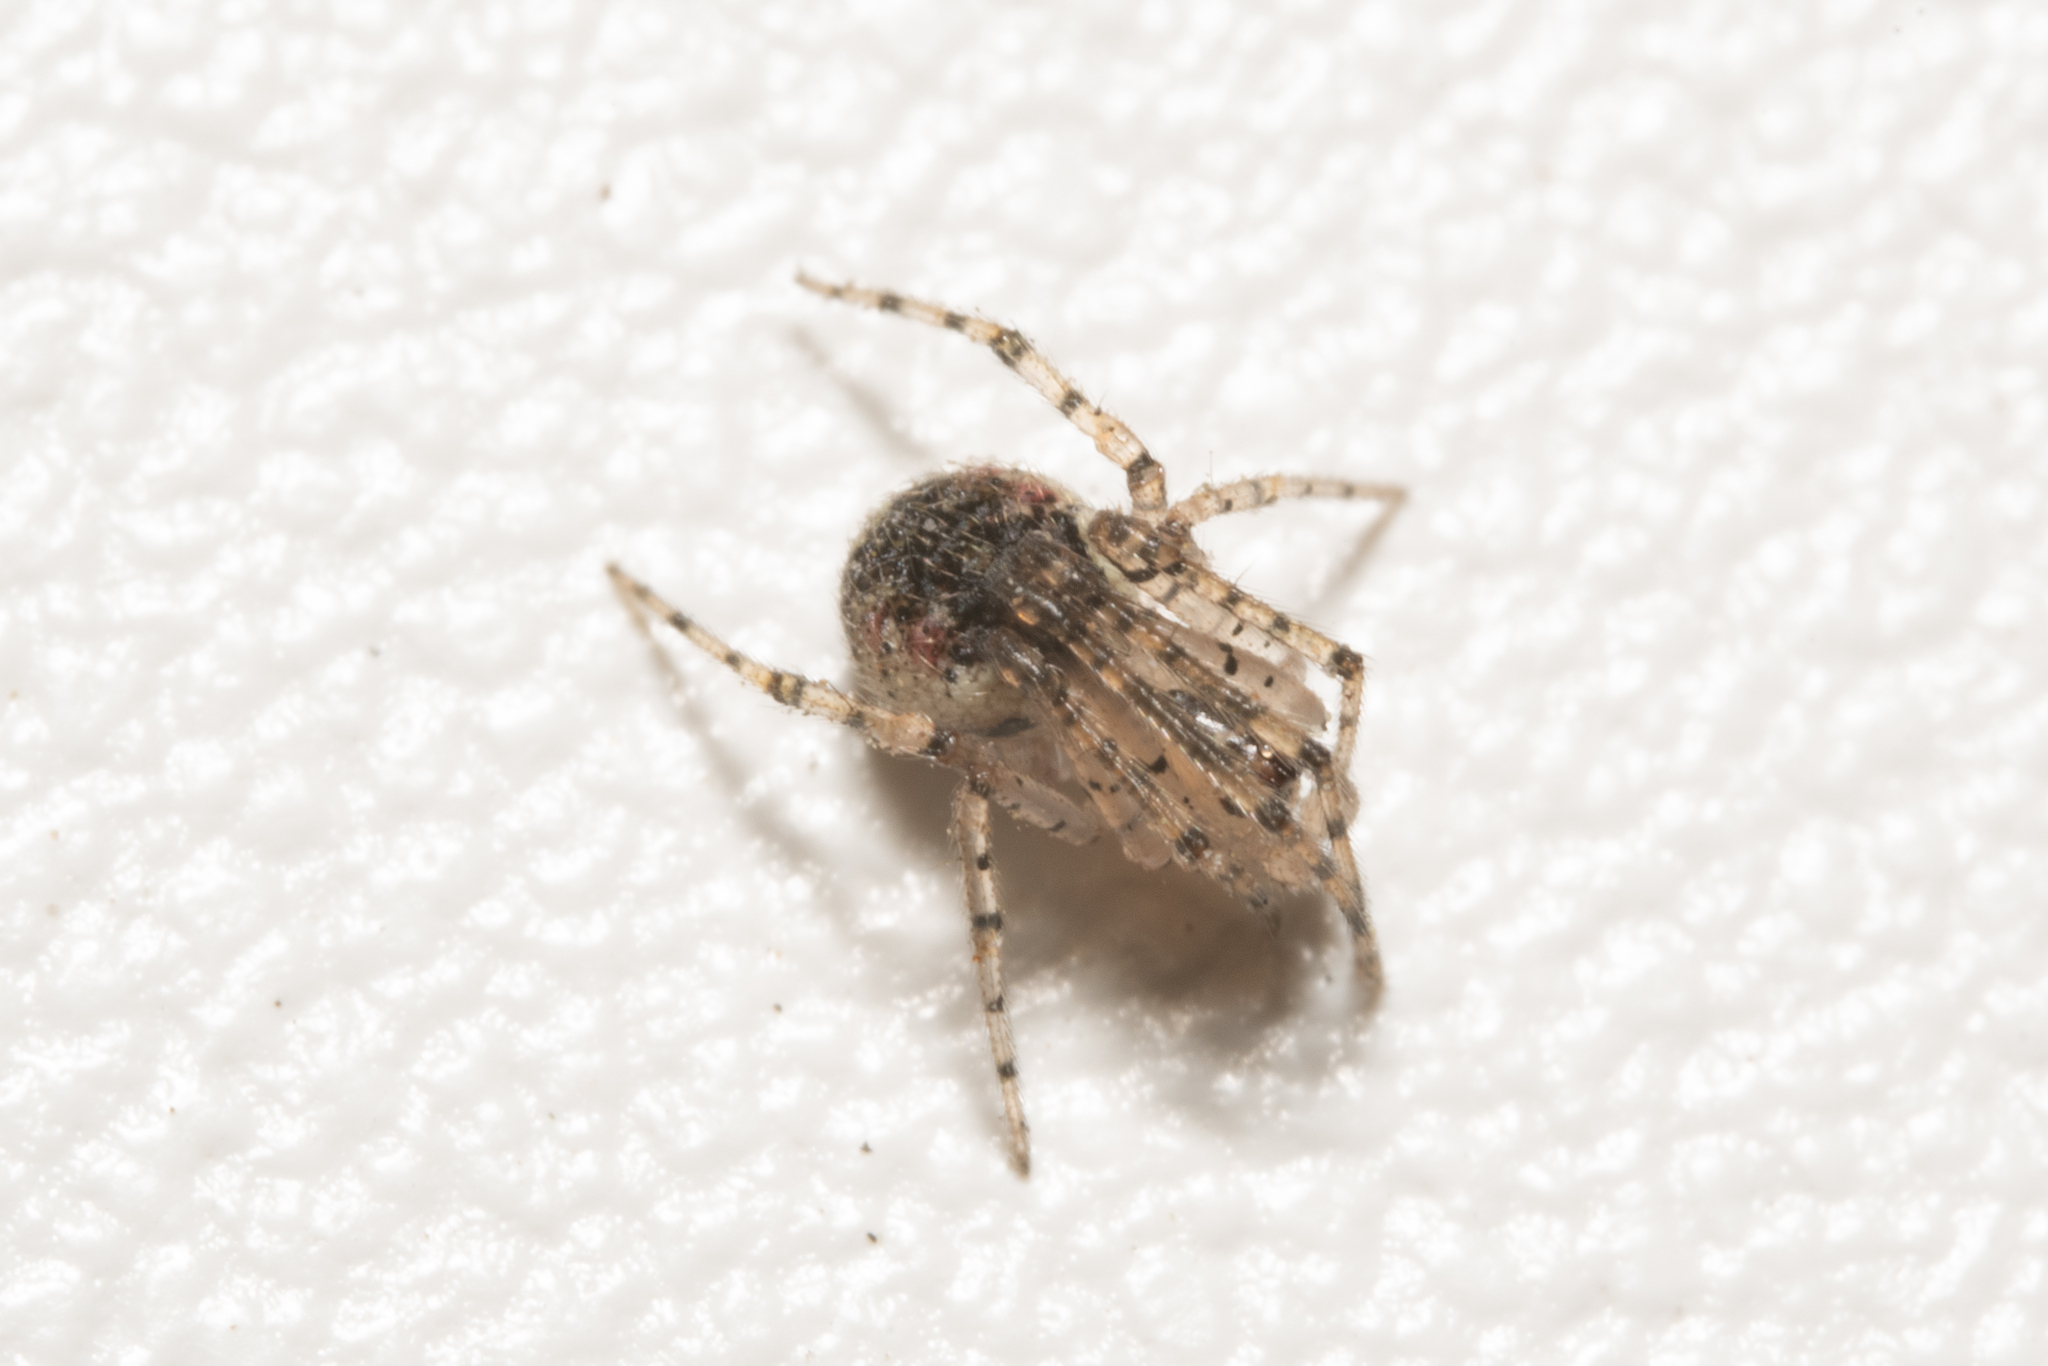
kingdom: Animalia
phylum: Arthropoda
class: Arachnida
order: Araneae
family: Theridiidae
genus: Platnickina
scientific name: Platnickina tincta
